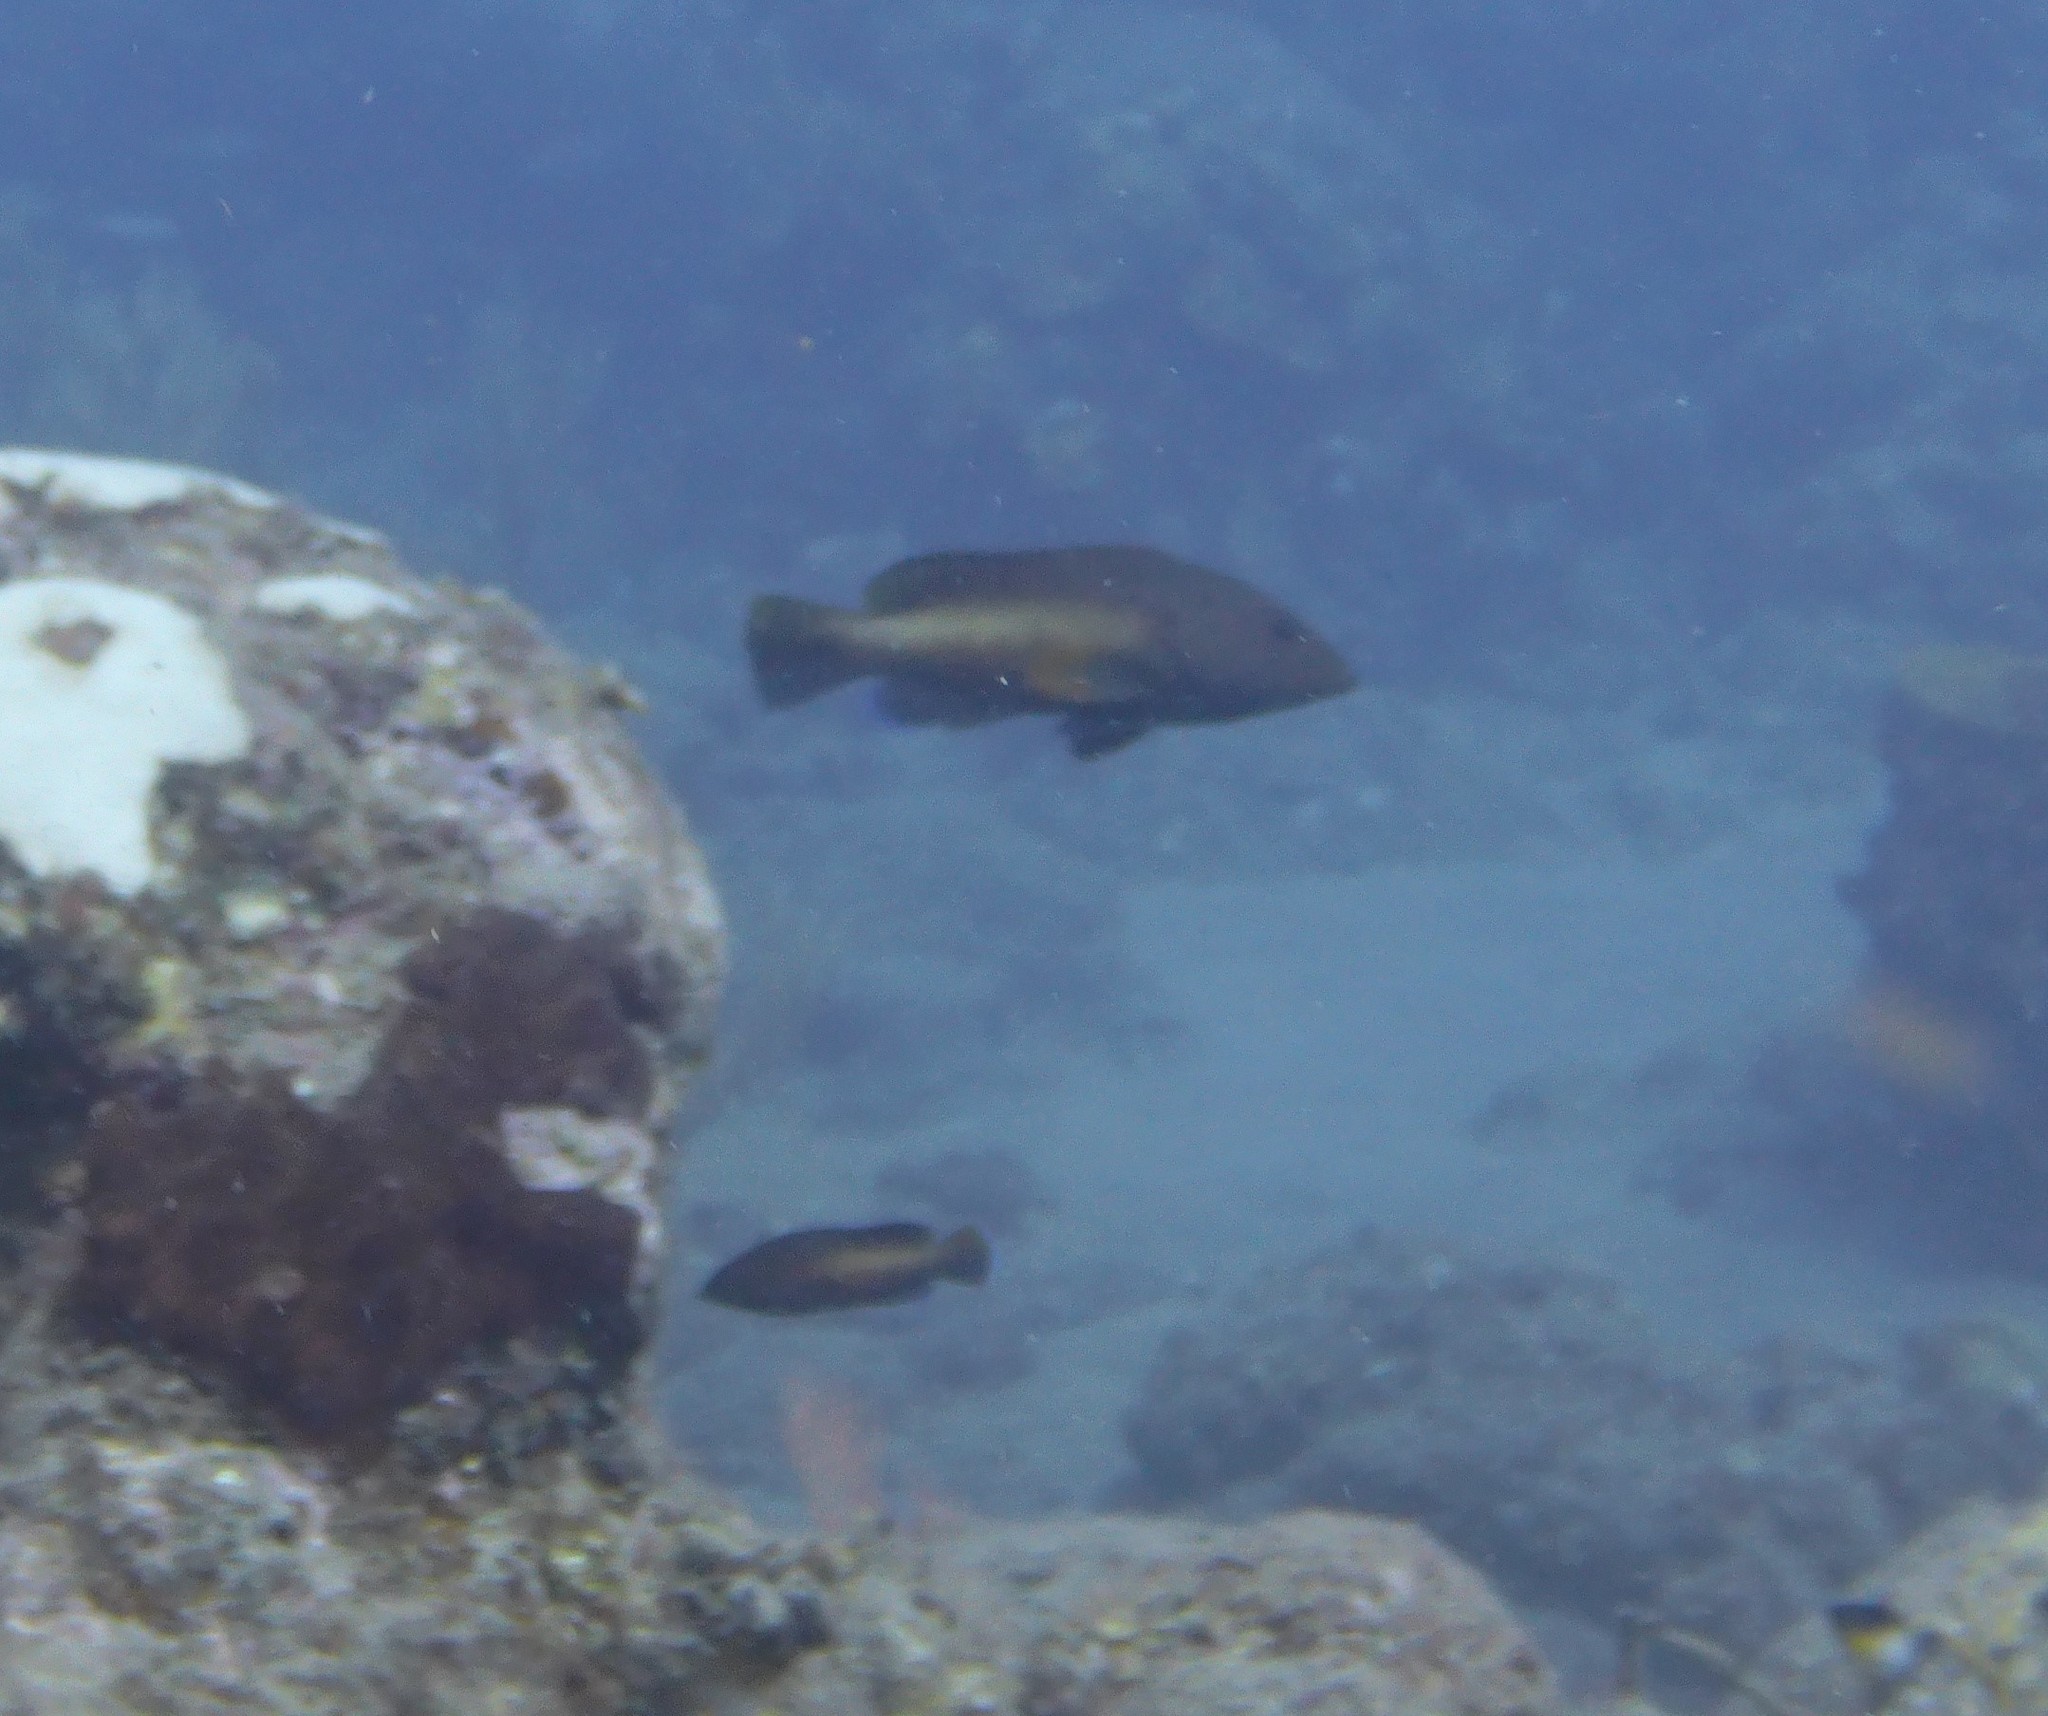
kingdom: Animalia
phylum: Chordata
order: Perciformes
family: Serranidae
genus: Cephalopholis
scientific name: Cephalopholis fulva
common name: Butterfish
